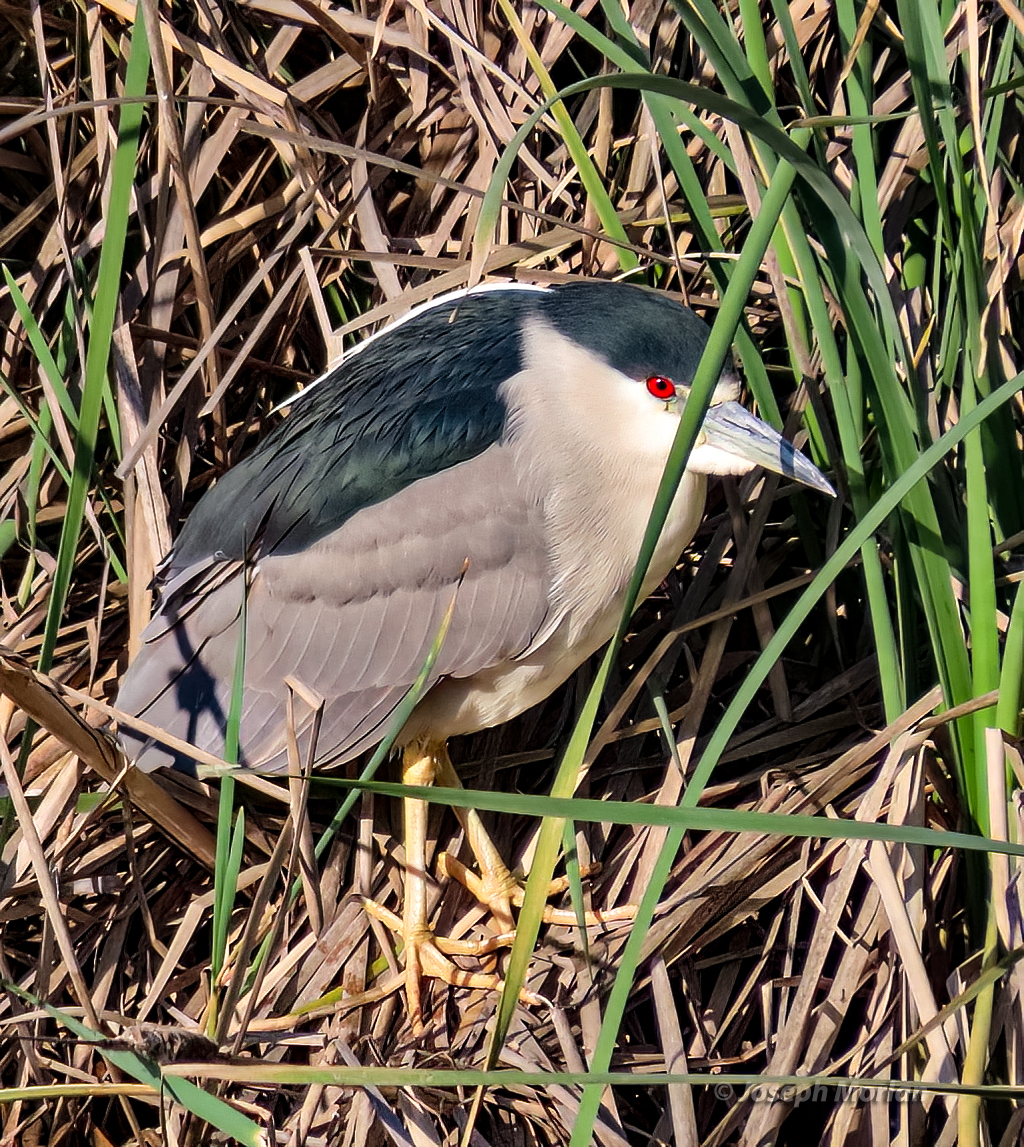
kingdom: Animalia
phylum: Chordata
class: Aves
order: Pelecaniformes
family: Ardeidae
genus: Nycticorax
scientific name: Nycticorax nycticorax
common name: Black-crowned night heron
